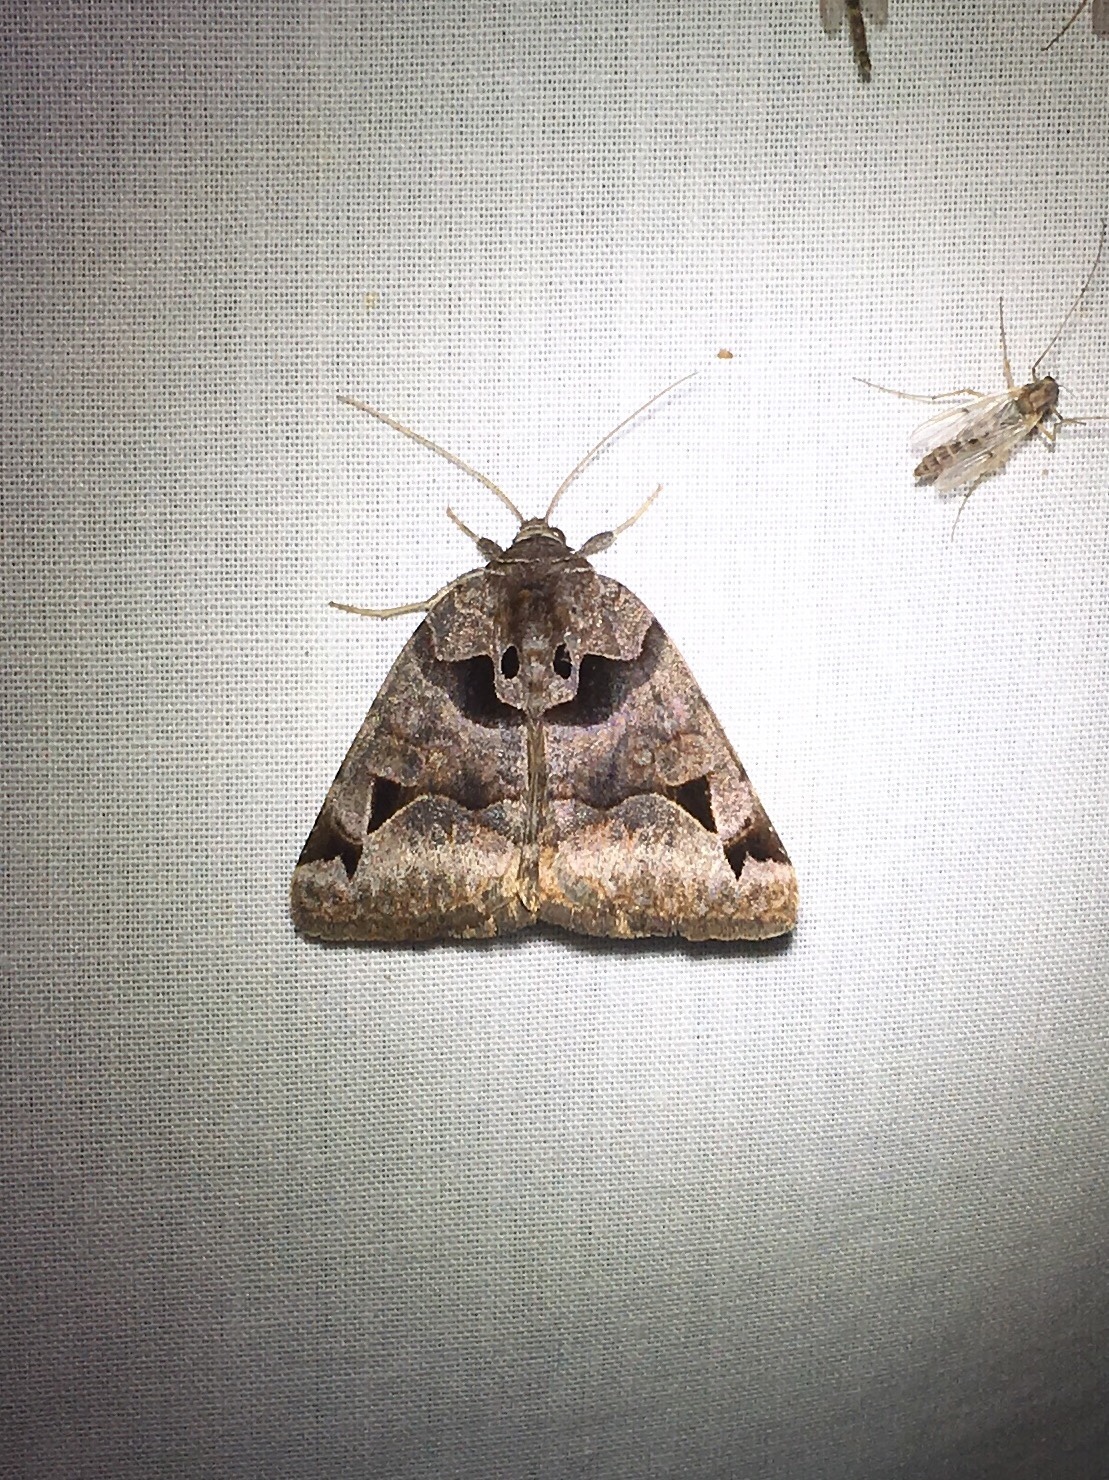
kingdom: Animalia
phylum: Arthropoda
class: Insecta
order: Lepidoptera
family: Erebidae
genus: Euclidia
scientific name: Euclidia cuspidea
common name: Toothed somberwing
